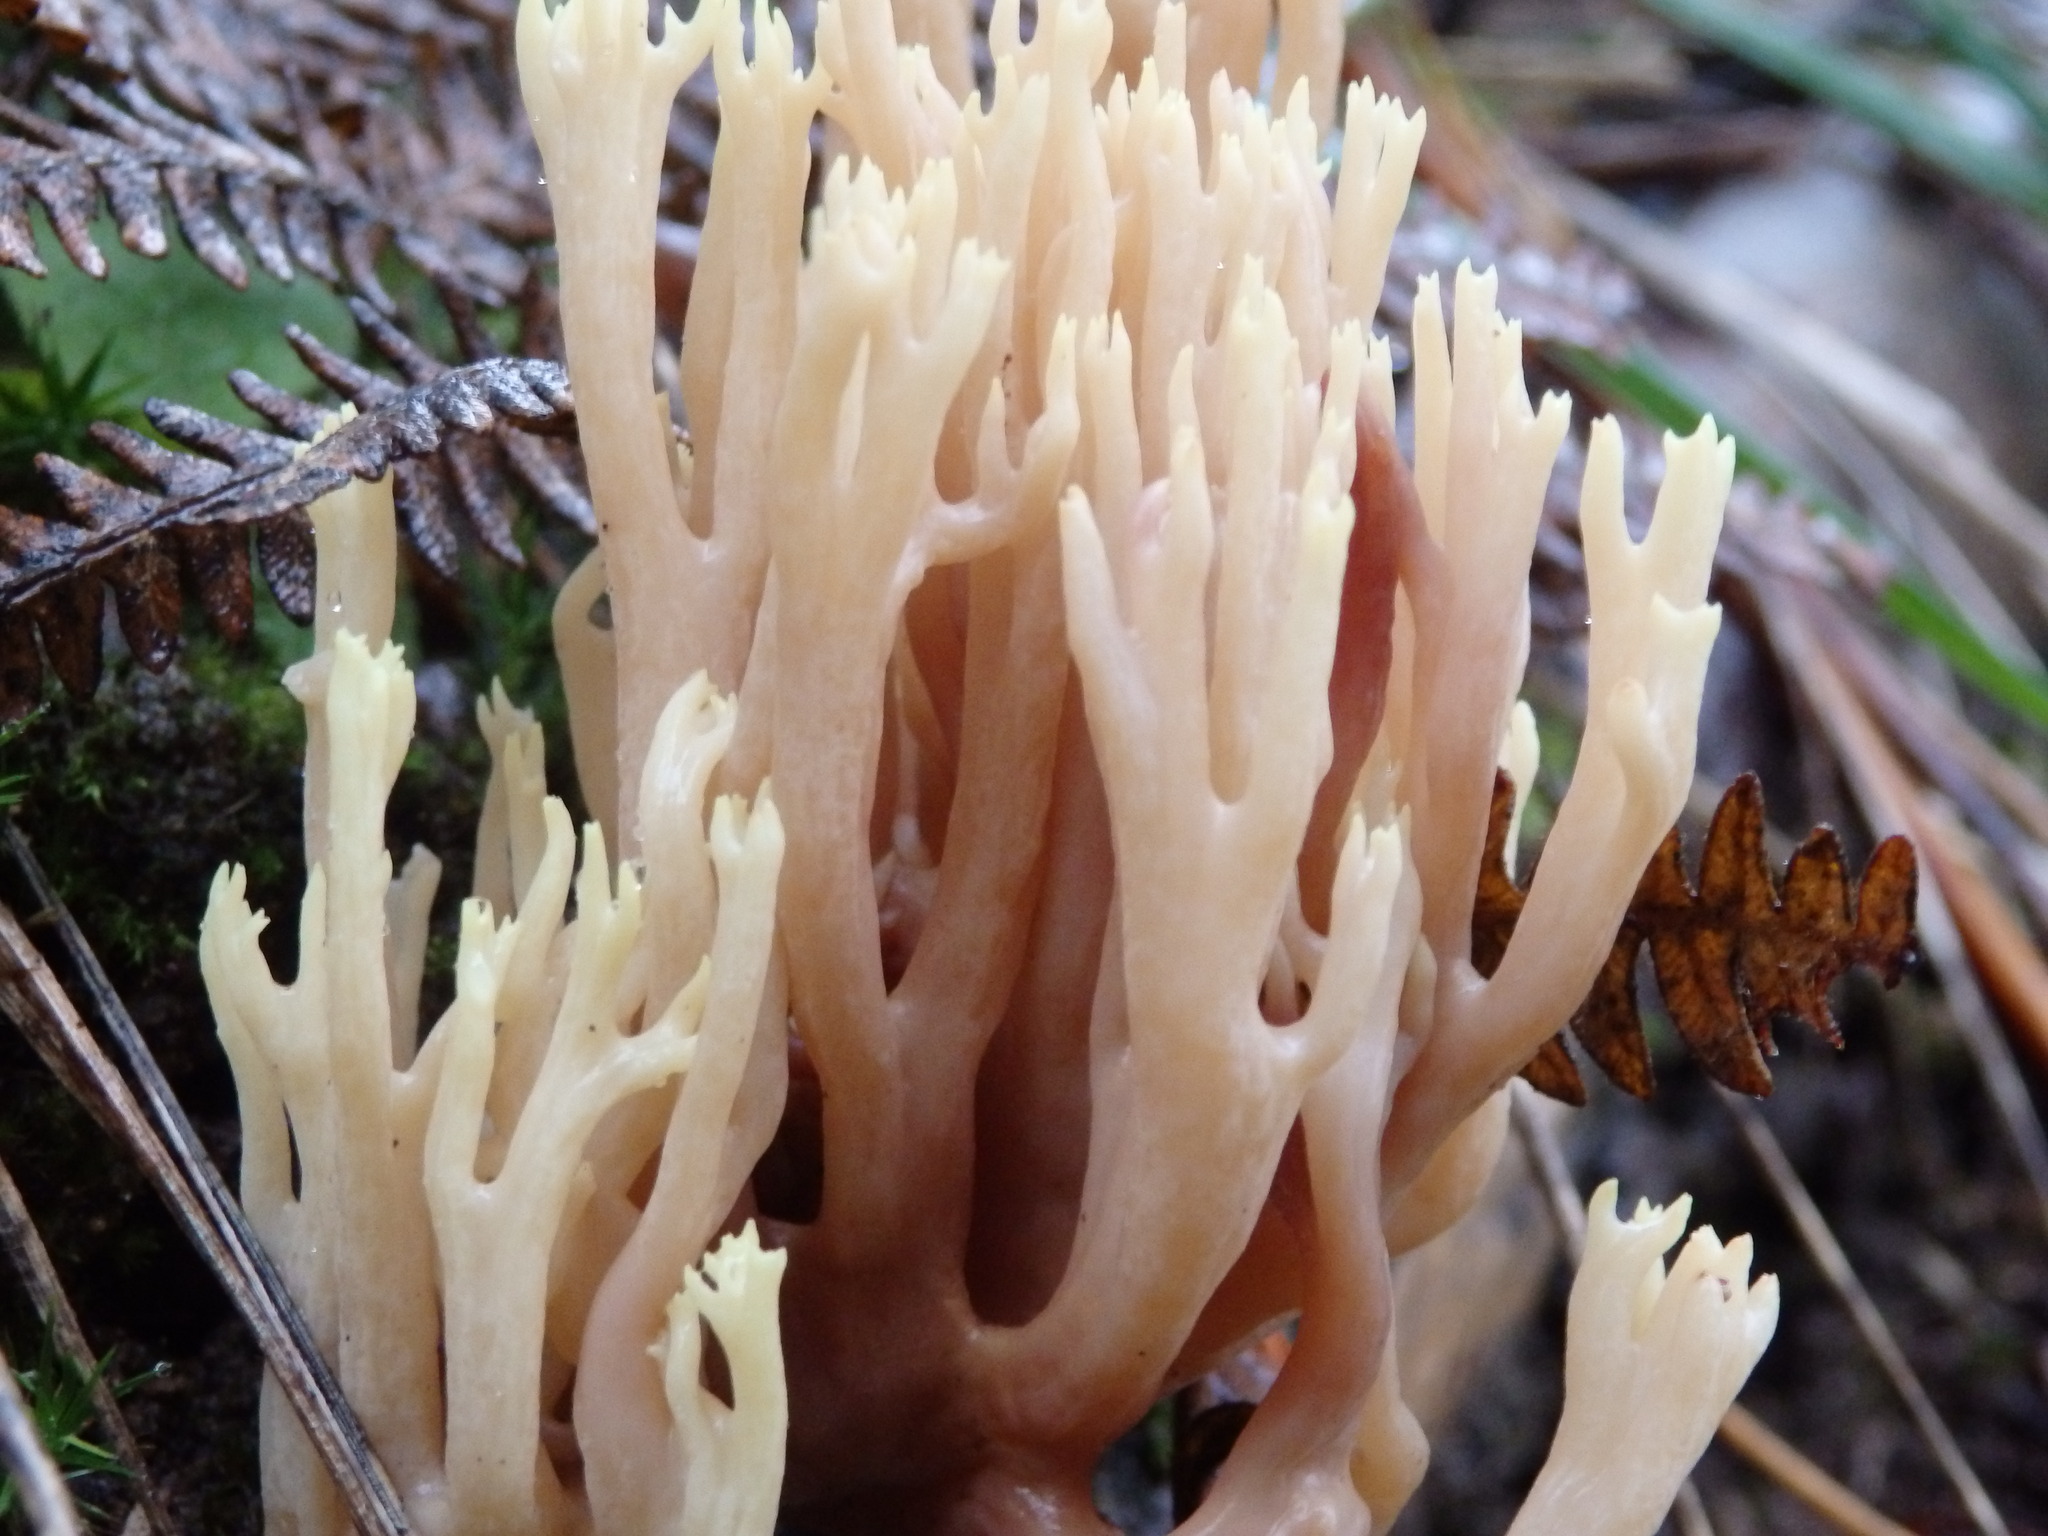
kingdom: Fungi
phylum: Basidiomycota
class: Agaricomycetes
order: Gomphales
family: Gomphaceae
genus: Ramaria
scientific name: Ramaria stricta
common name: Upright coral
